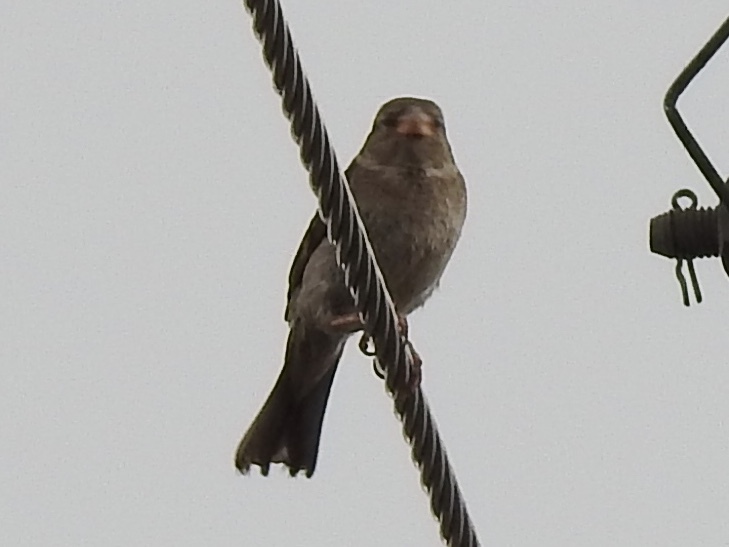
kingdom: Animalia
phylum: Chordata
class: Aves
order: Passeriformes
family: Passeridae
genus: Passer
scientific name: Passer domesticus
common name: House sparrow
